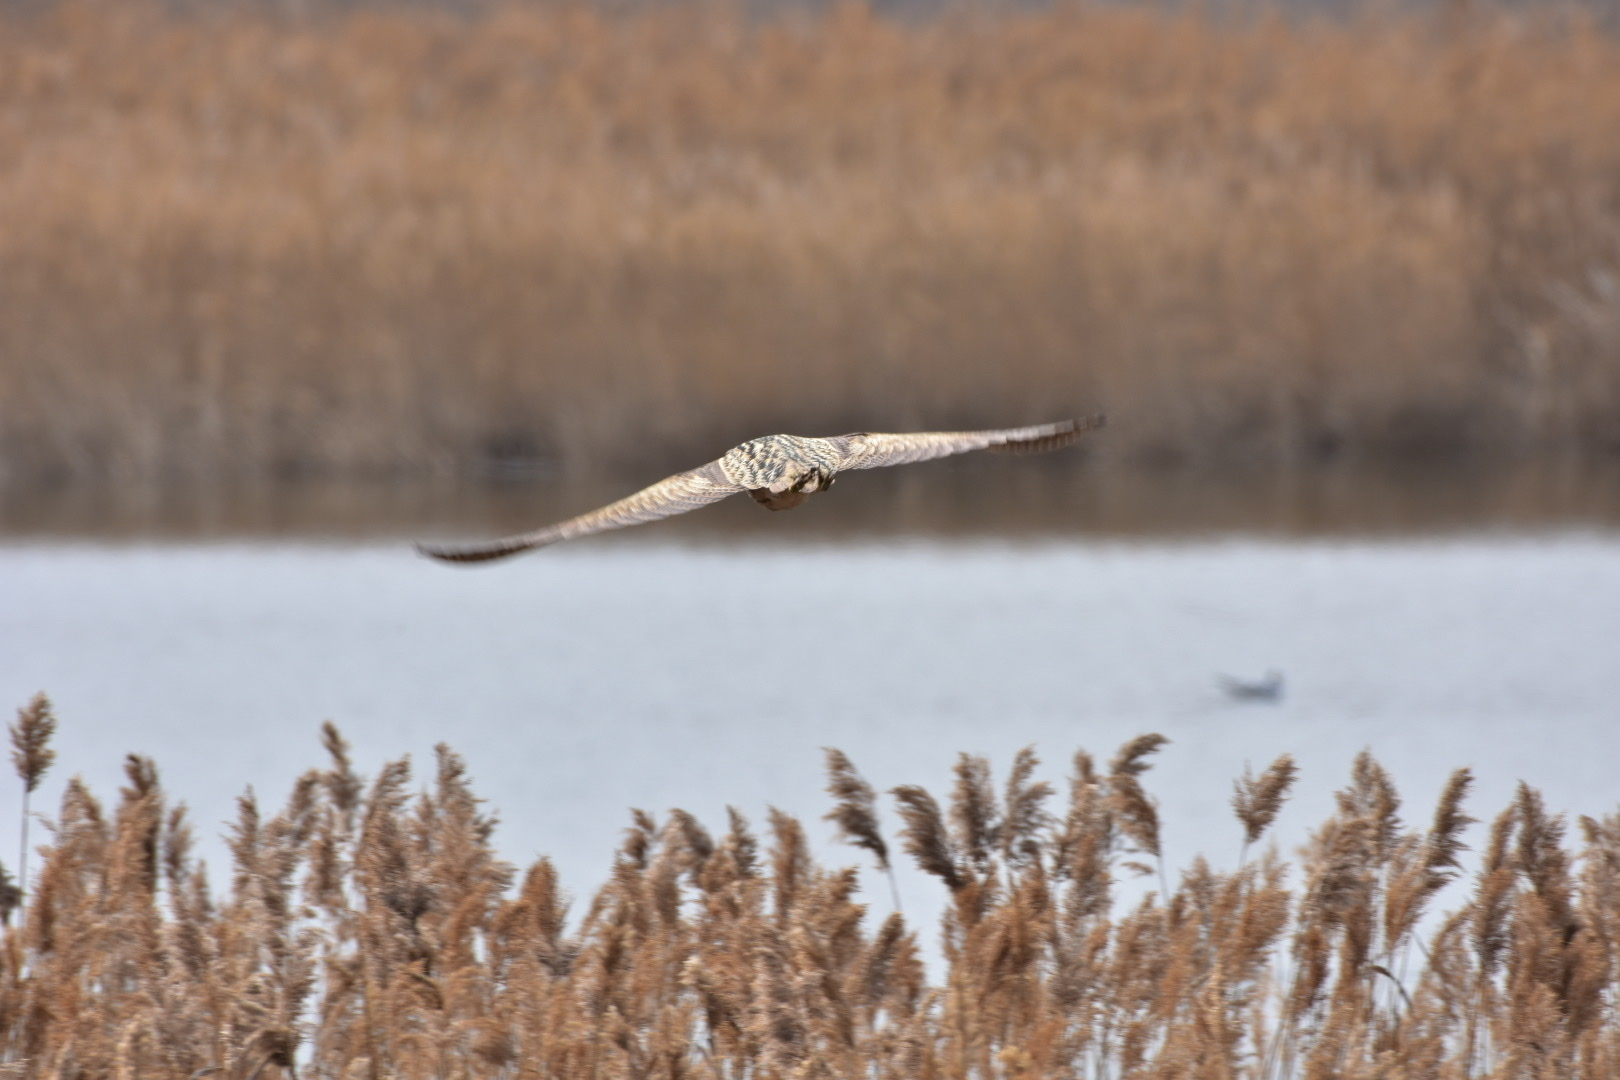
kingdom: Animalia
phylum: Chordata
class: Aves
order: Pelecaniformes
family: Ardeidae
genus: Botaurus
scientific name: Botaurus stellaris
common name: Eurasian bittern
